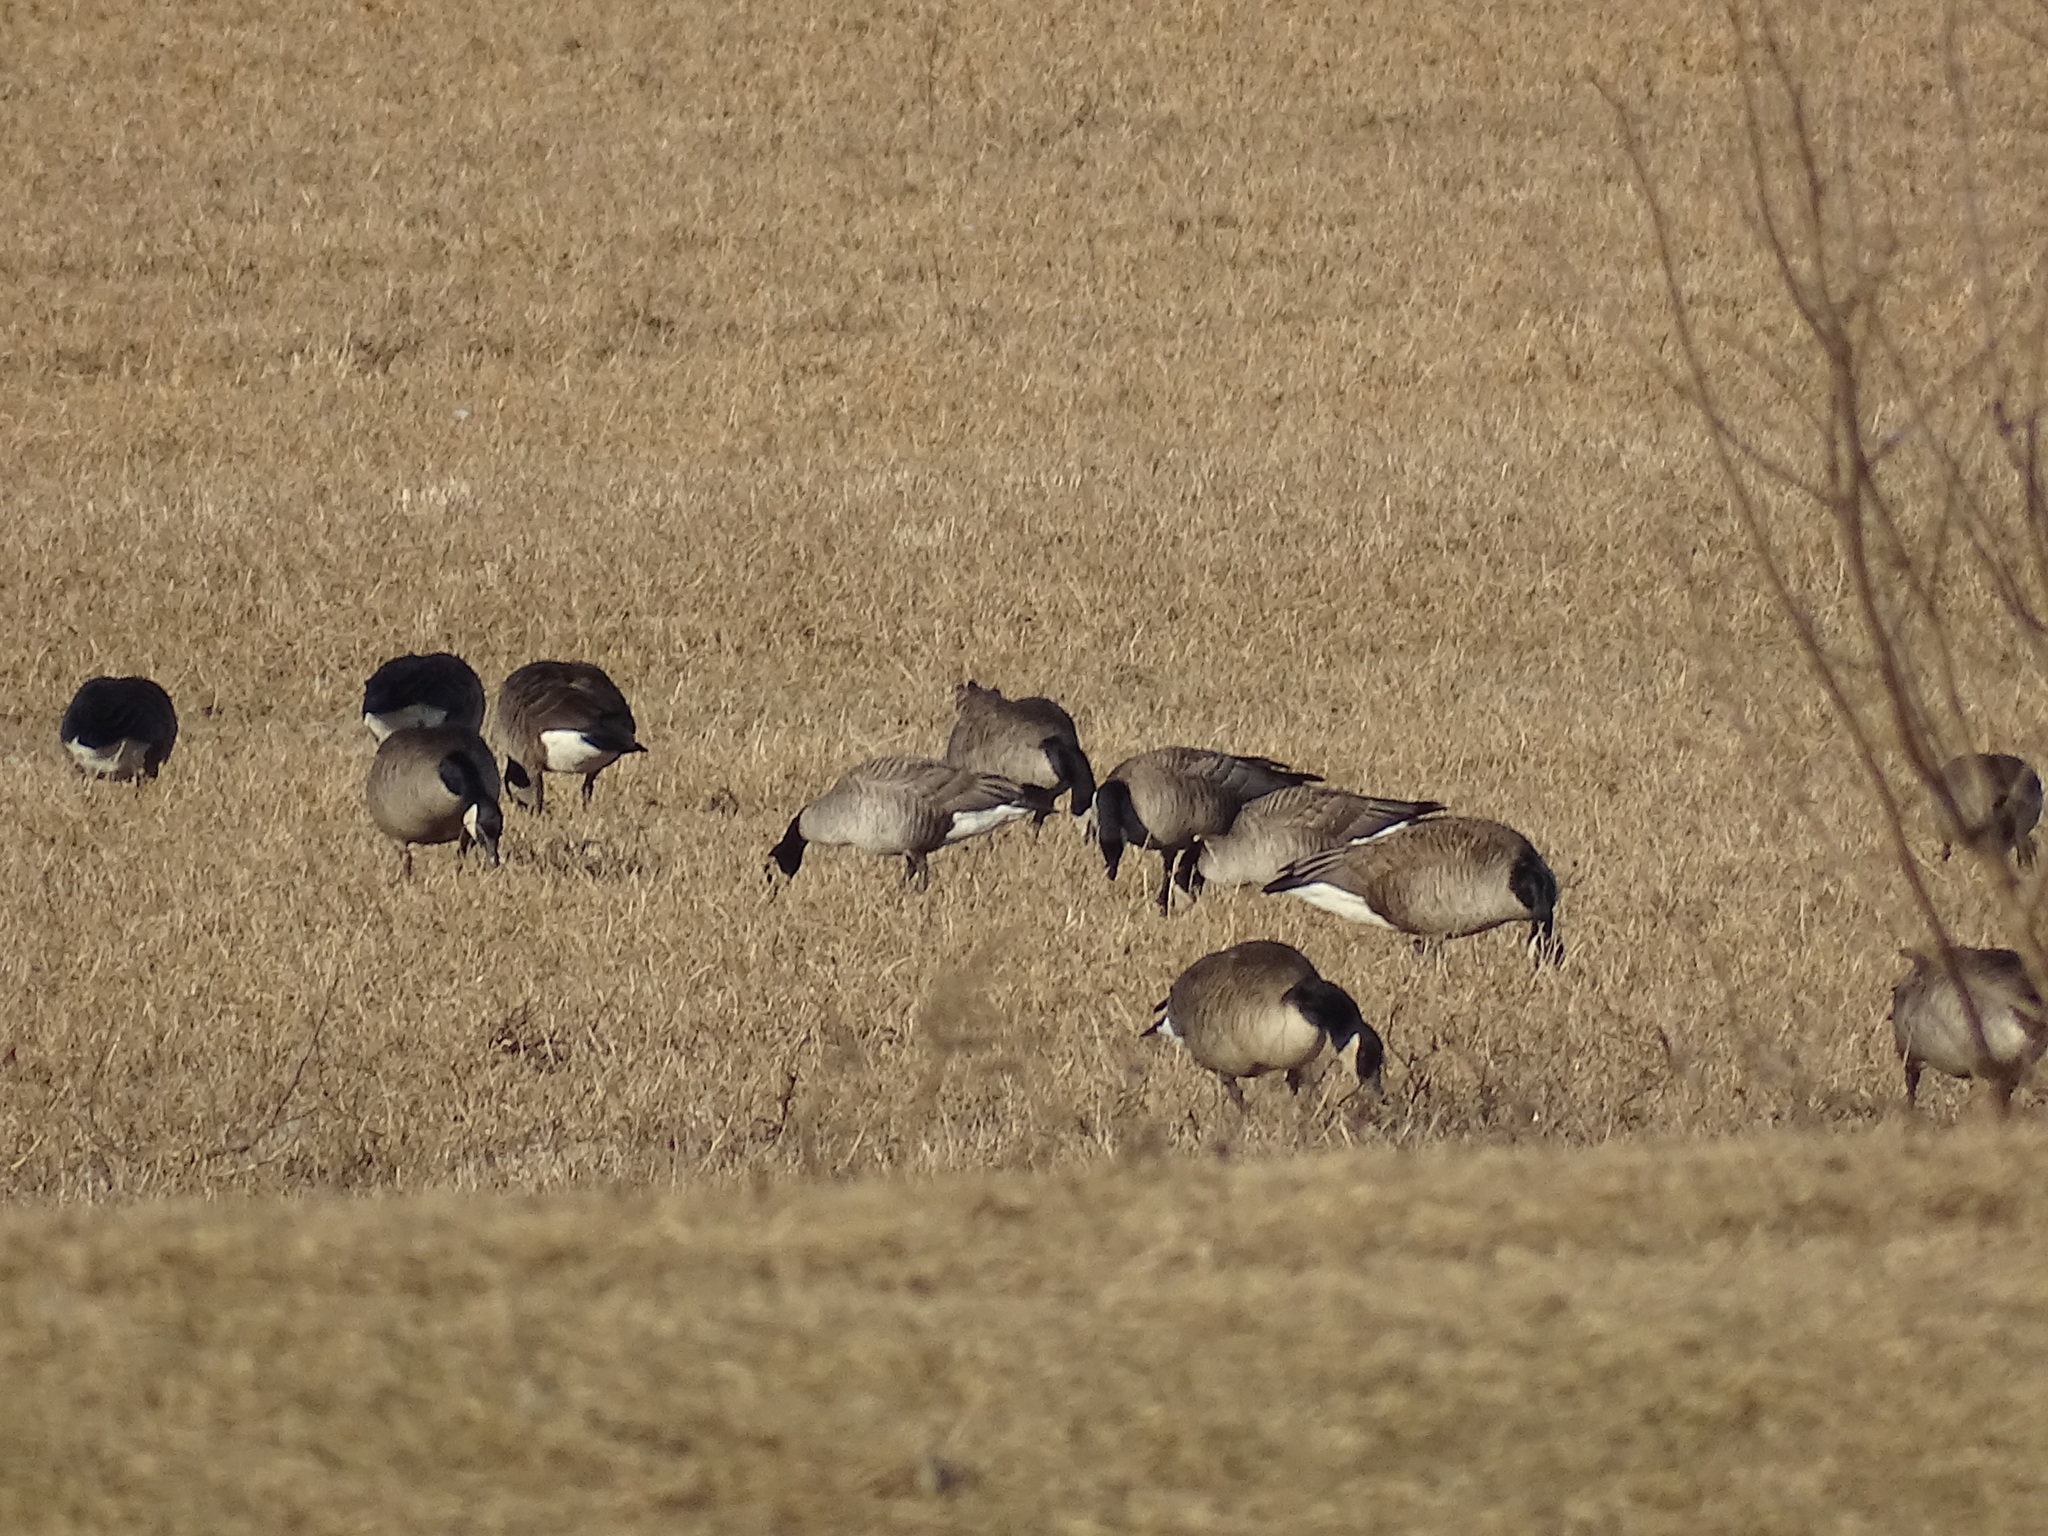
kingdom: Animalia
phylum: Chordata
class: Aves
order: Anseriformes
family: Anatidae
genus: Branta
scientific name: Branta hutchinsii
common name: Cackling goose
